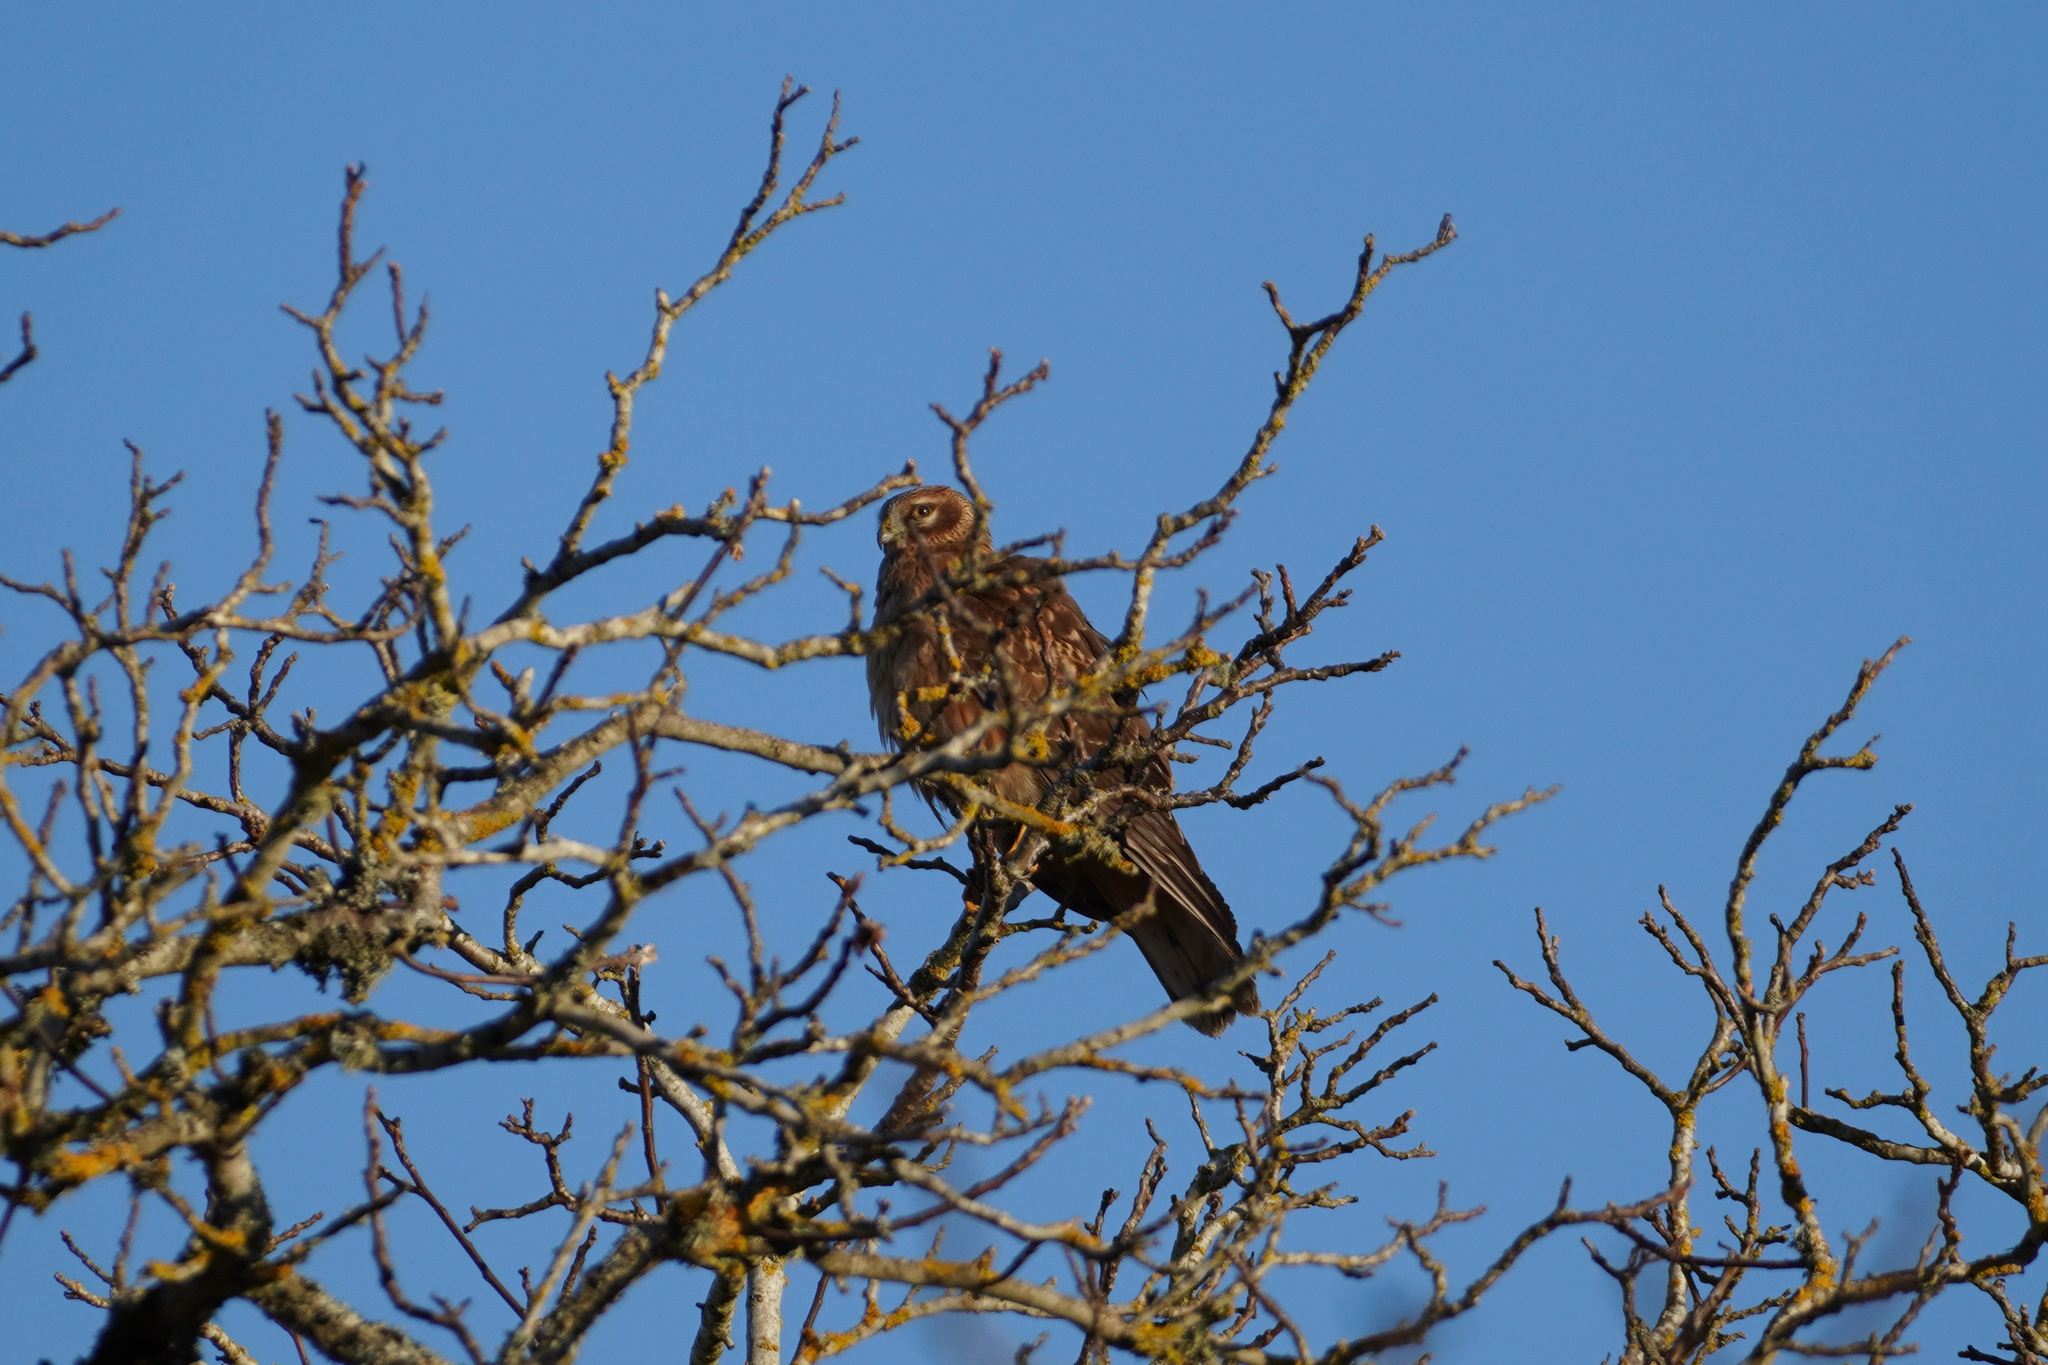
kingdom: Animalia
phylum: Chordata
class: Aves
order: Accipitriformes
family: Accipitridae
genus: Circus
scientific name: Circus cyaneus
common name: Hen harrier
